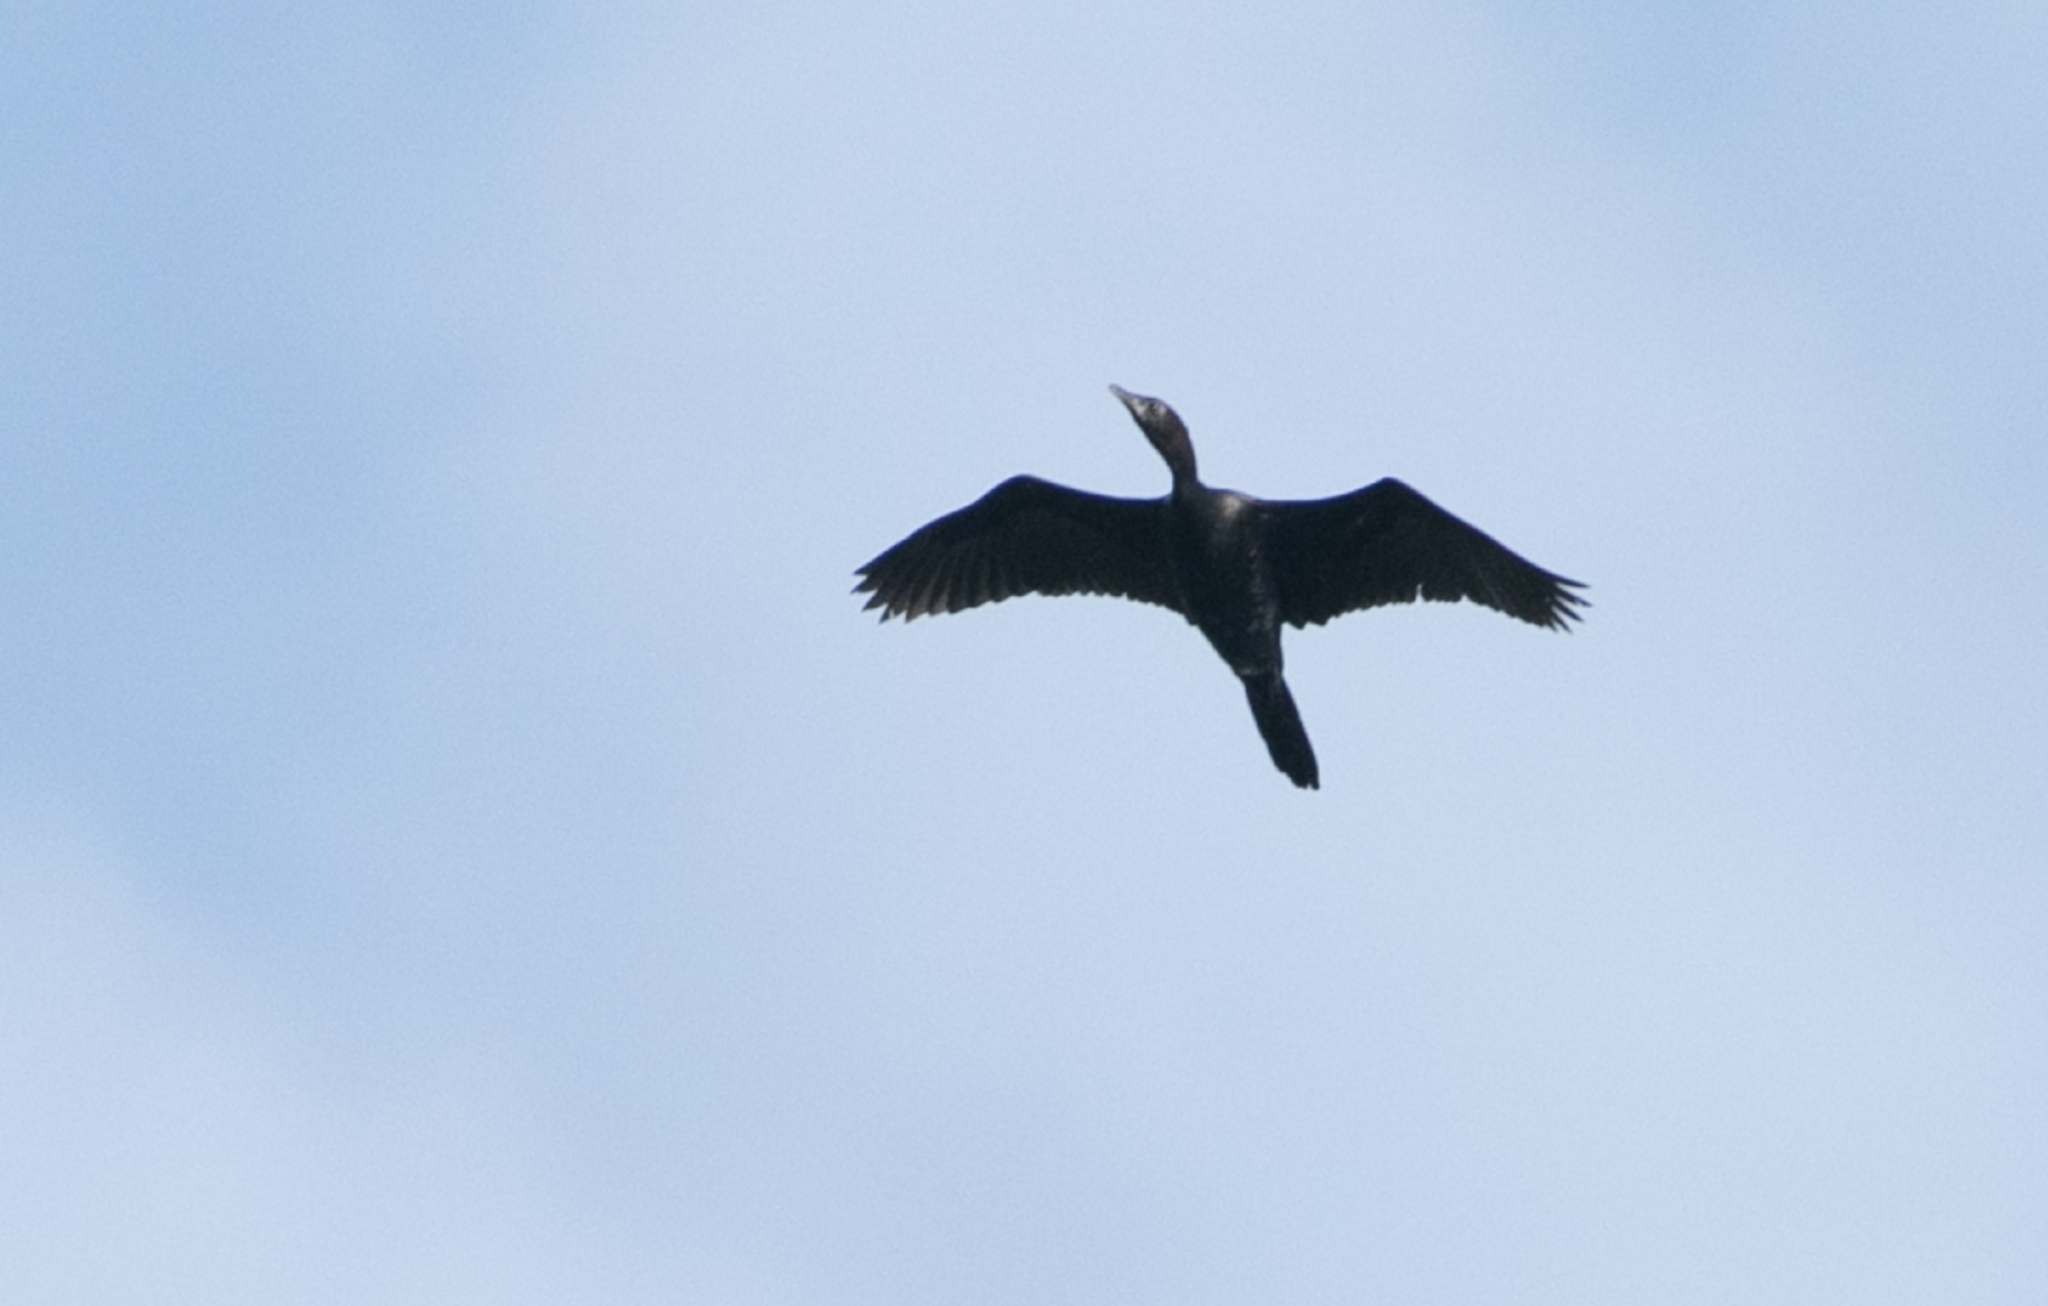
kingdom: Animalia
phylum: Chordata
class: Aves
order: Suliformes
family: Phalacrocoracidae
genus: Microcarbo
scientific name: Microcarbo pygmaeus
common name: Pygmy cormorant
